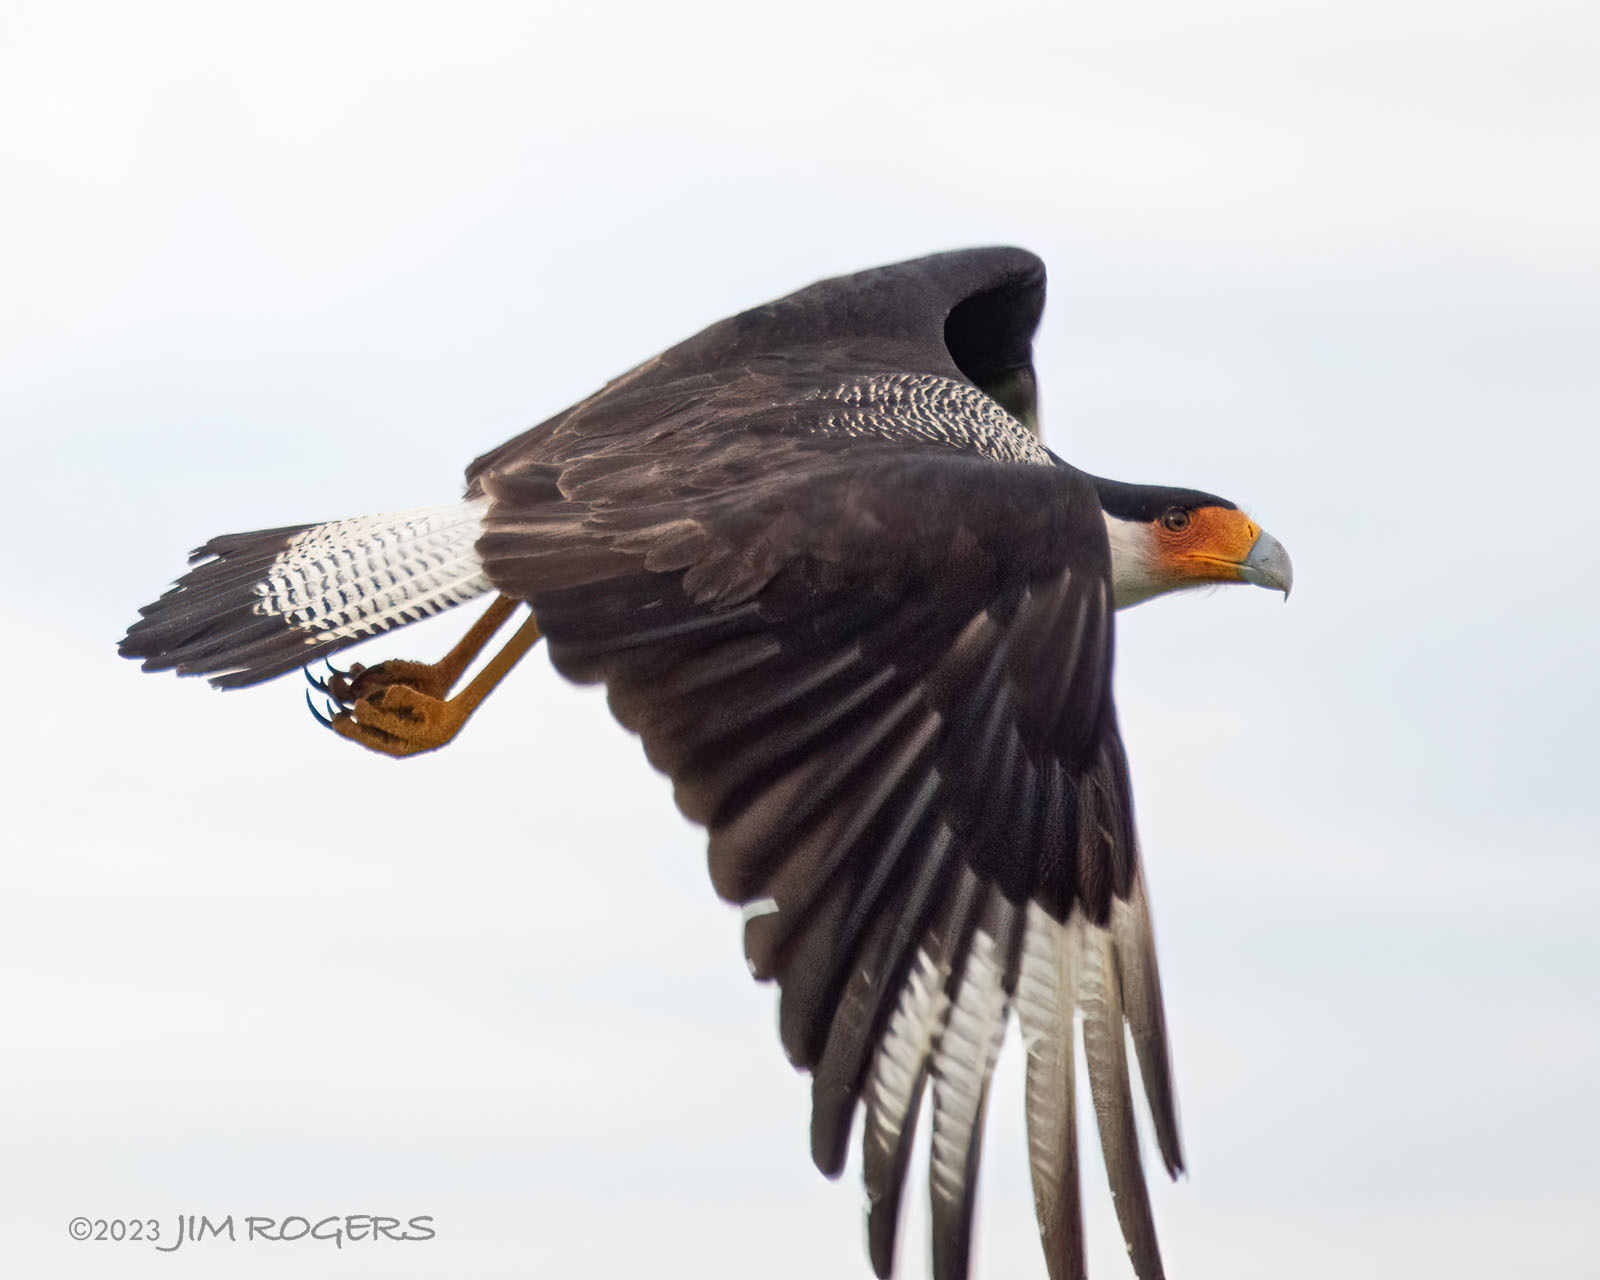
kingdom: Animalia
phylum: Chordata
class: Aves
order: Falconiformes
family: Falconidae
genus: Caracara
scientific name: Caracara plancus
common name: Southern caracara
